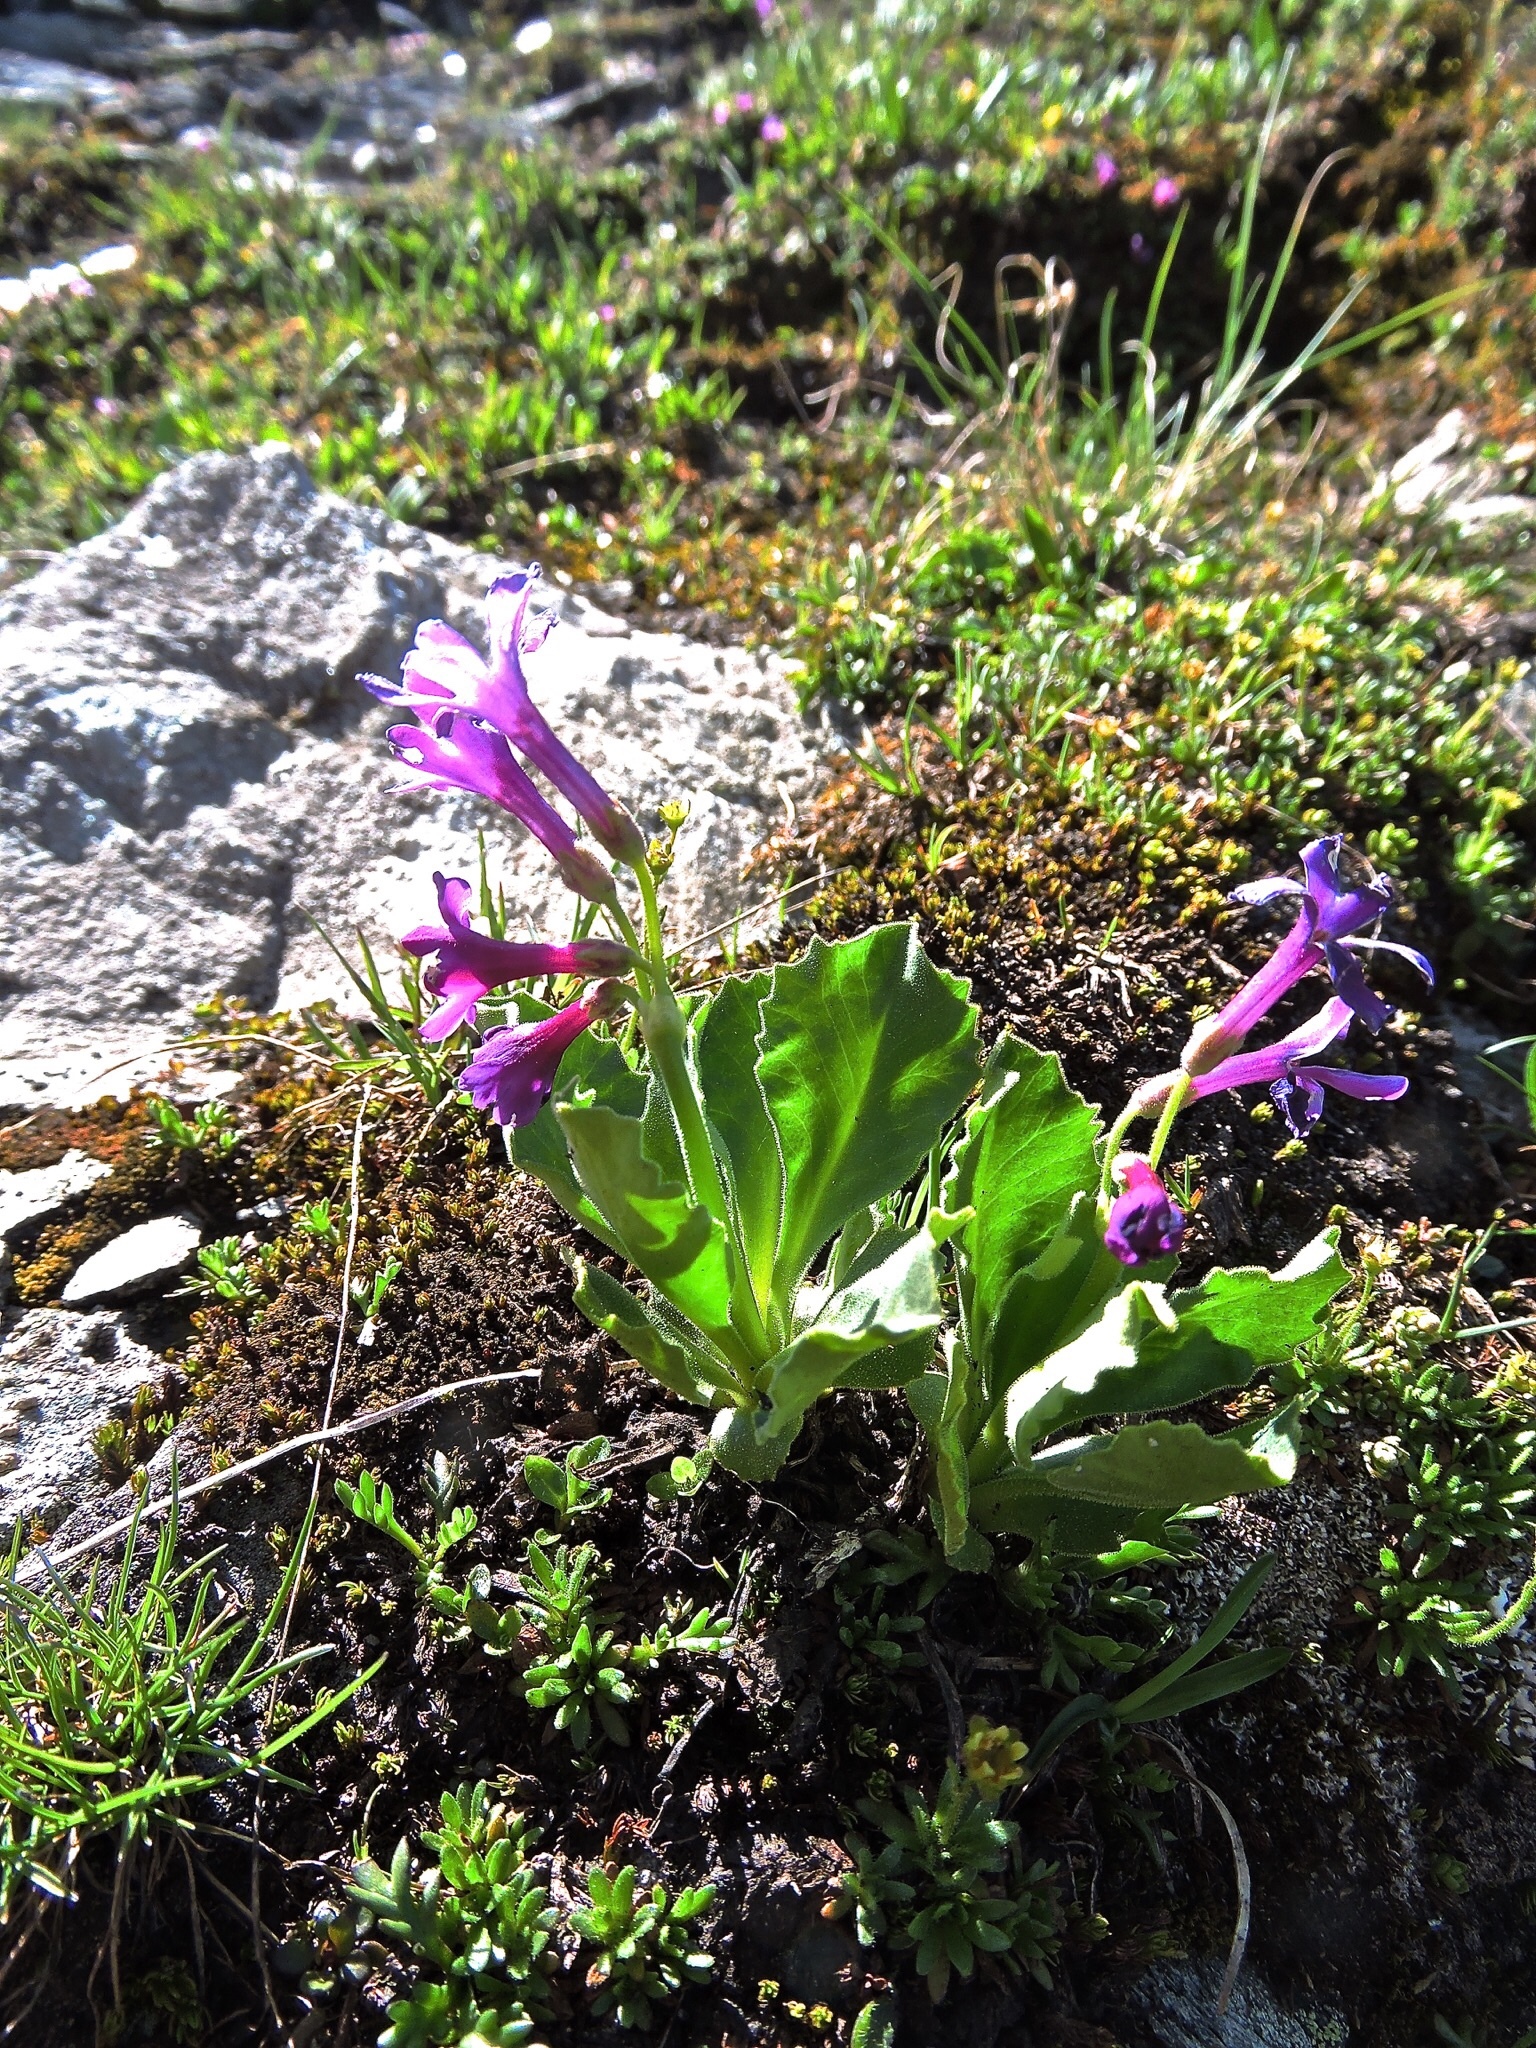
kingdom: Plantae
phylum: Tracheophyta
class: Magnoliopsida
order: Ericales
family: Primulaceae
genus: Primula
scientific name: Primula latifolia
